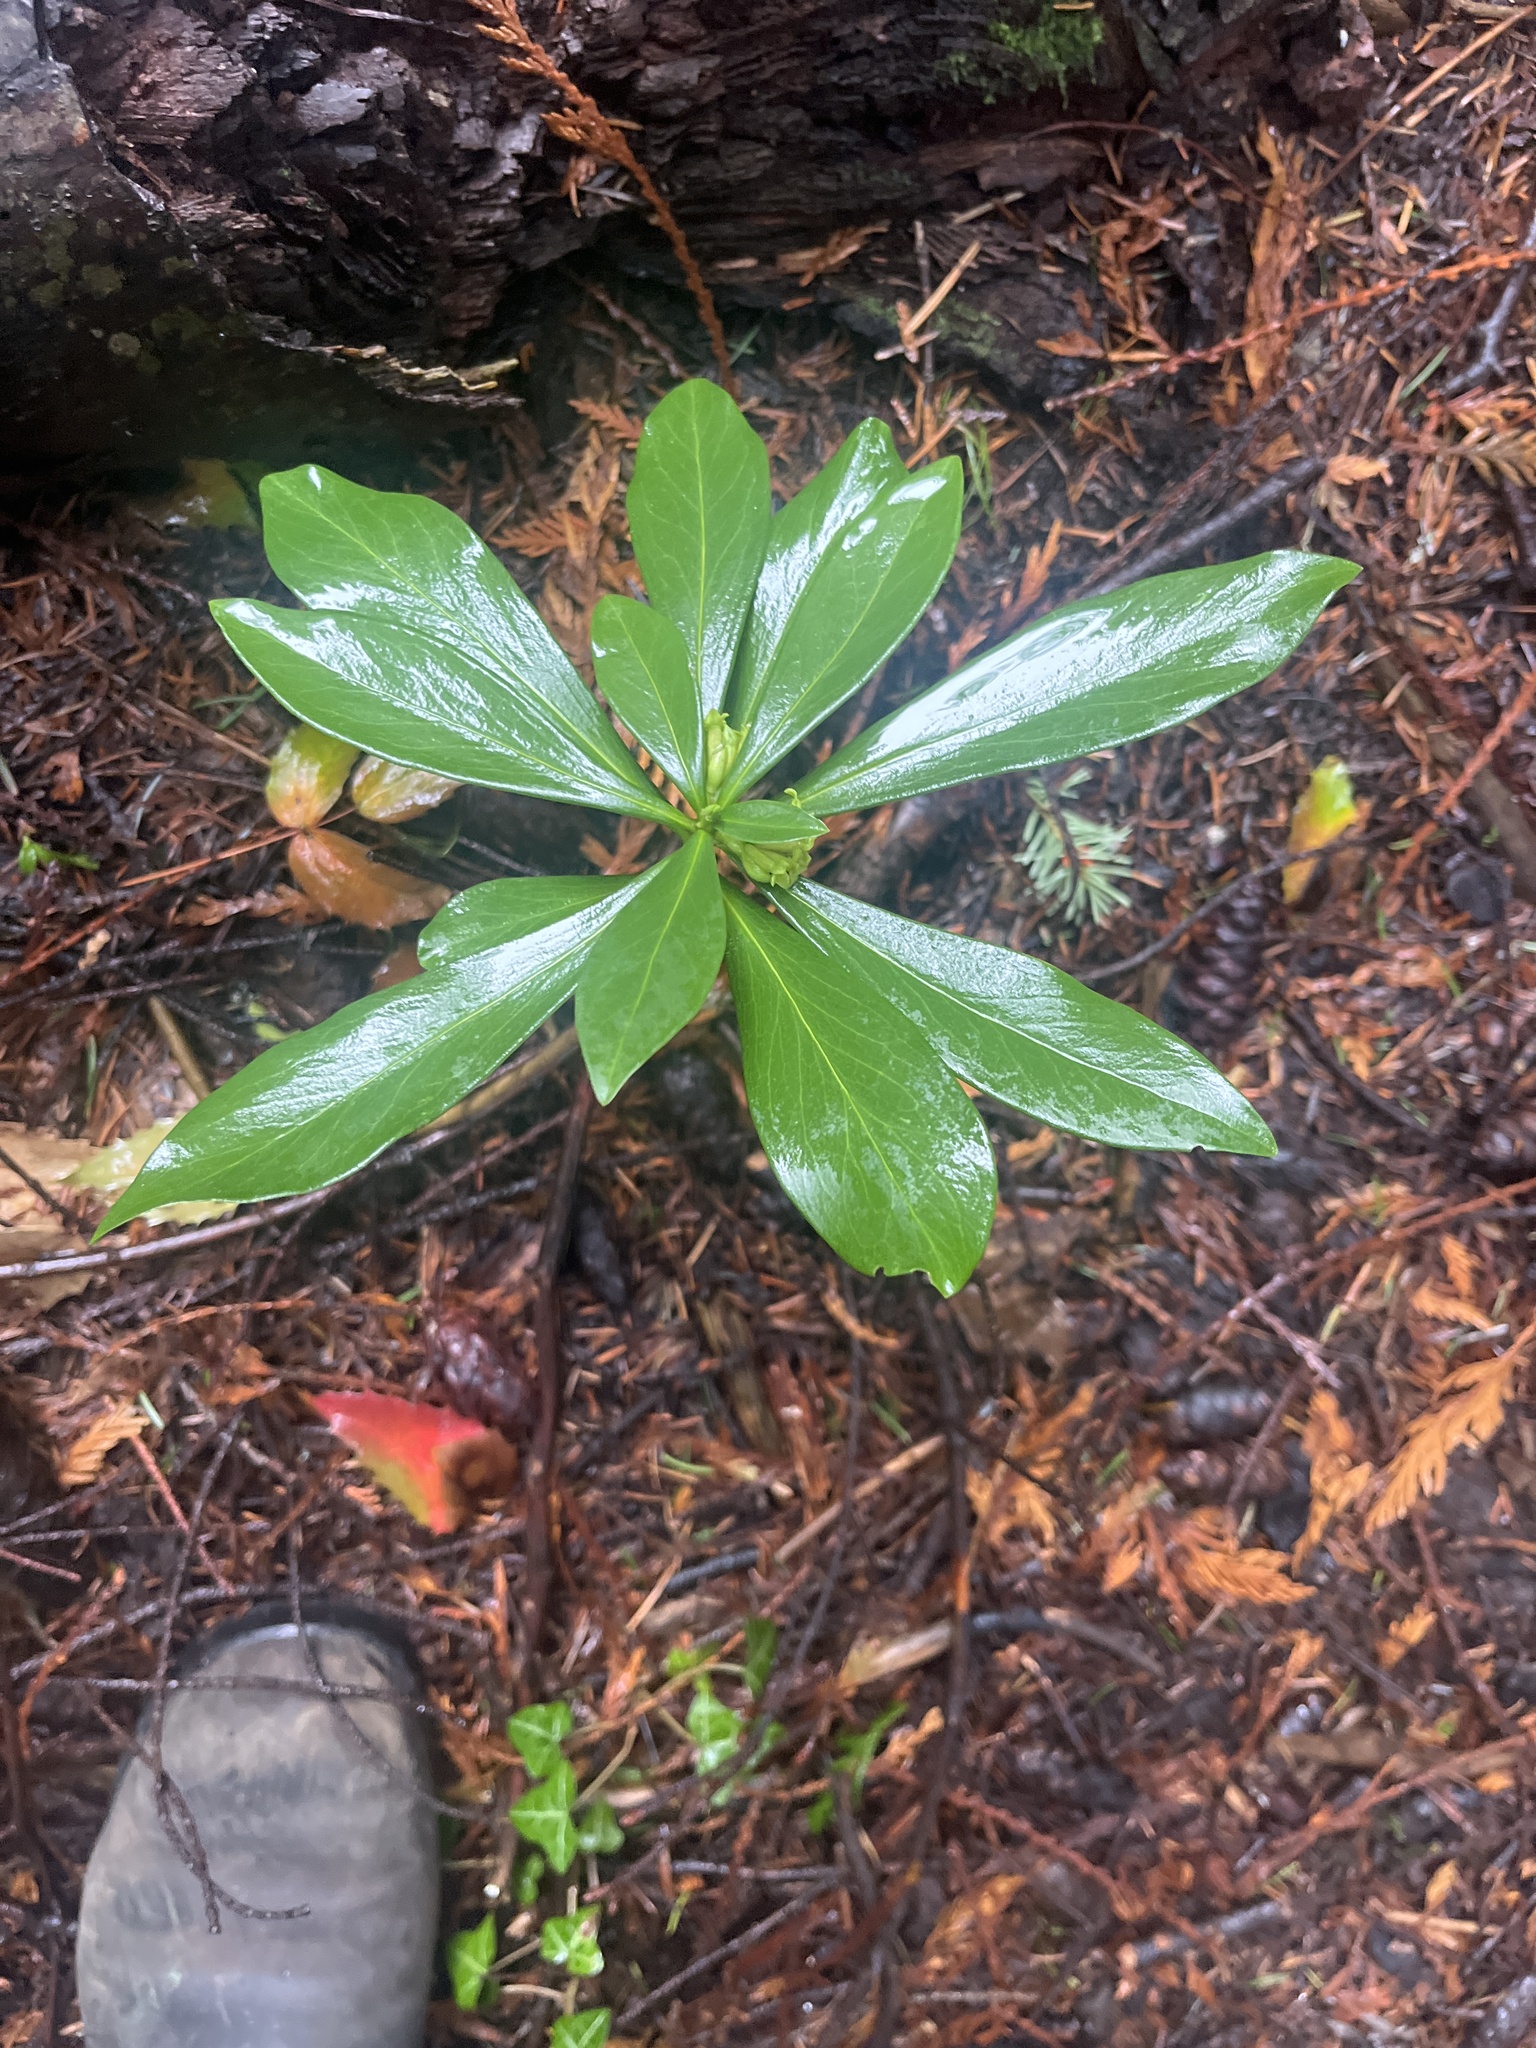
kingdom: Plantae
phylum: Tracheophyta
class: Magnoliopsida
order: Malvales
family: Thymelaeaceae
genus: Daphne
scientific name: Daphne laureola
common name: Spurge-laurel
